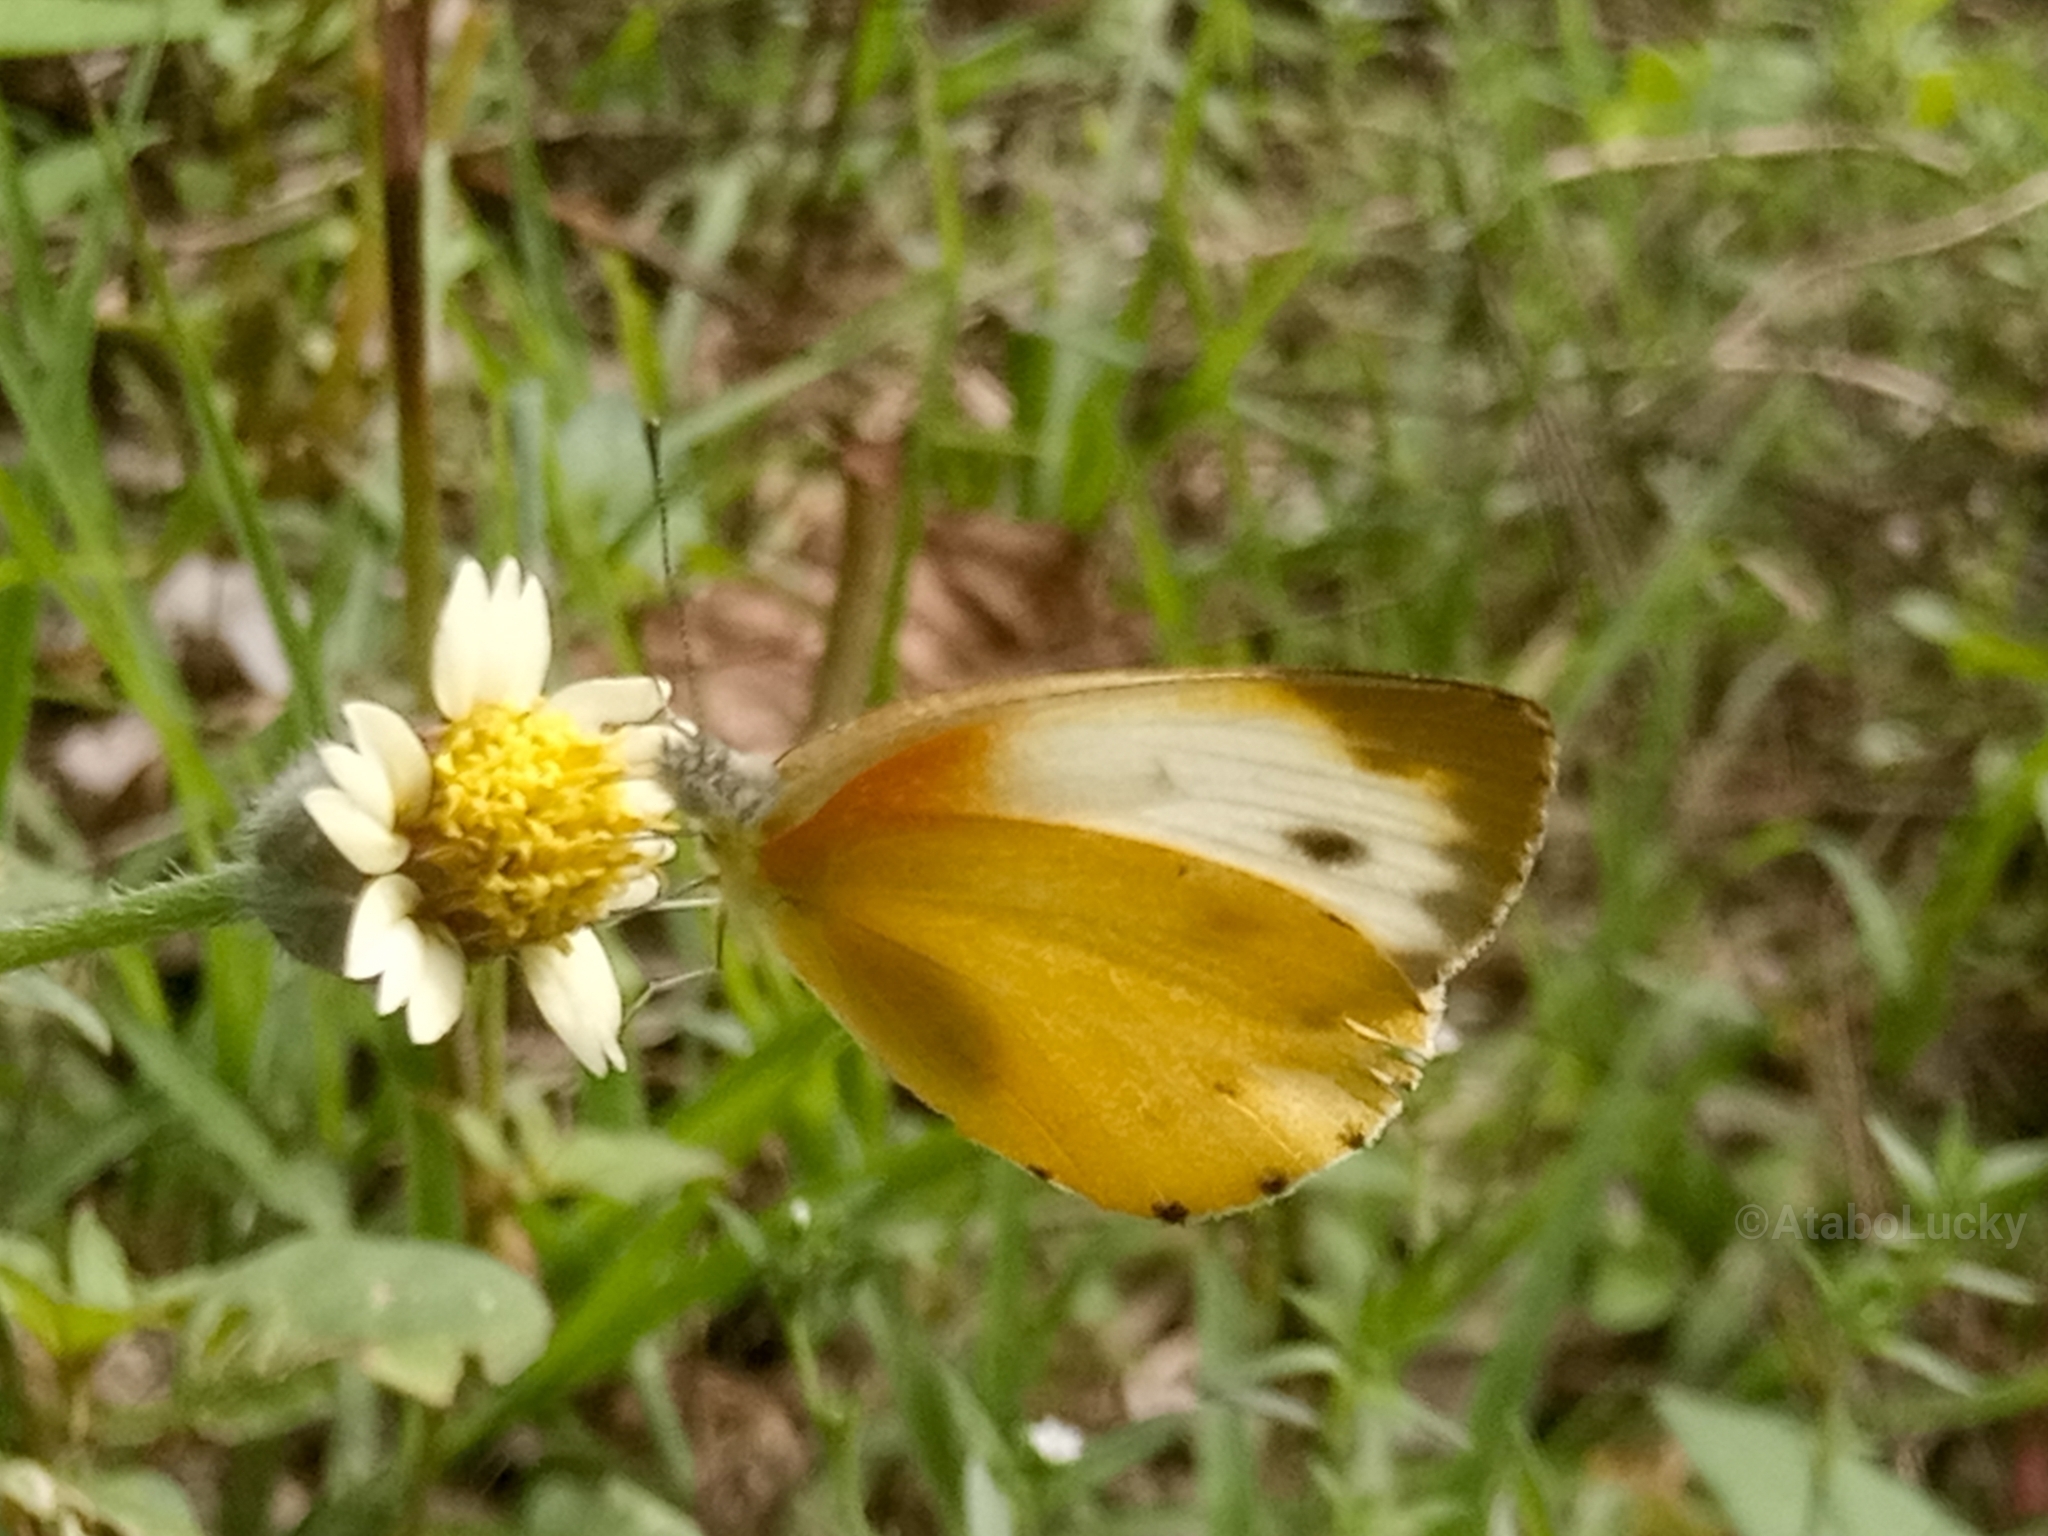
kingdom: Animalia
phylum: Arthropoda
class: Insecta
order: Lepidoptera
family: Pieridae
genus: Dixeia
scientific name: Dixeia orbona
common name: Creamy small white
